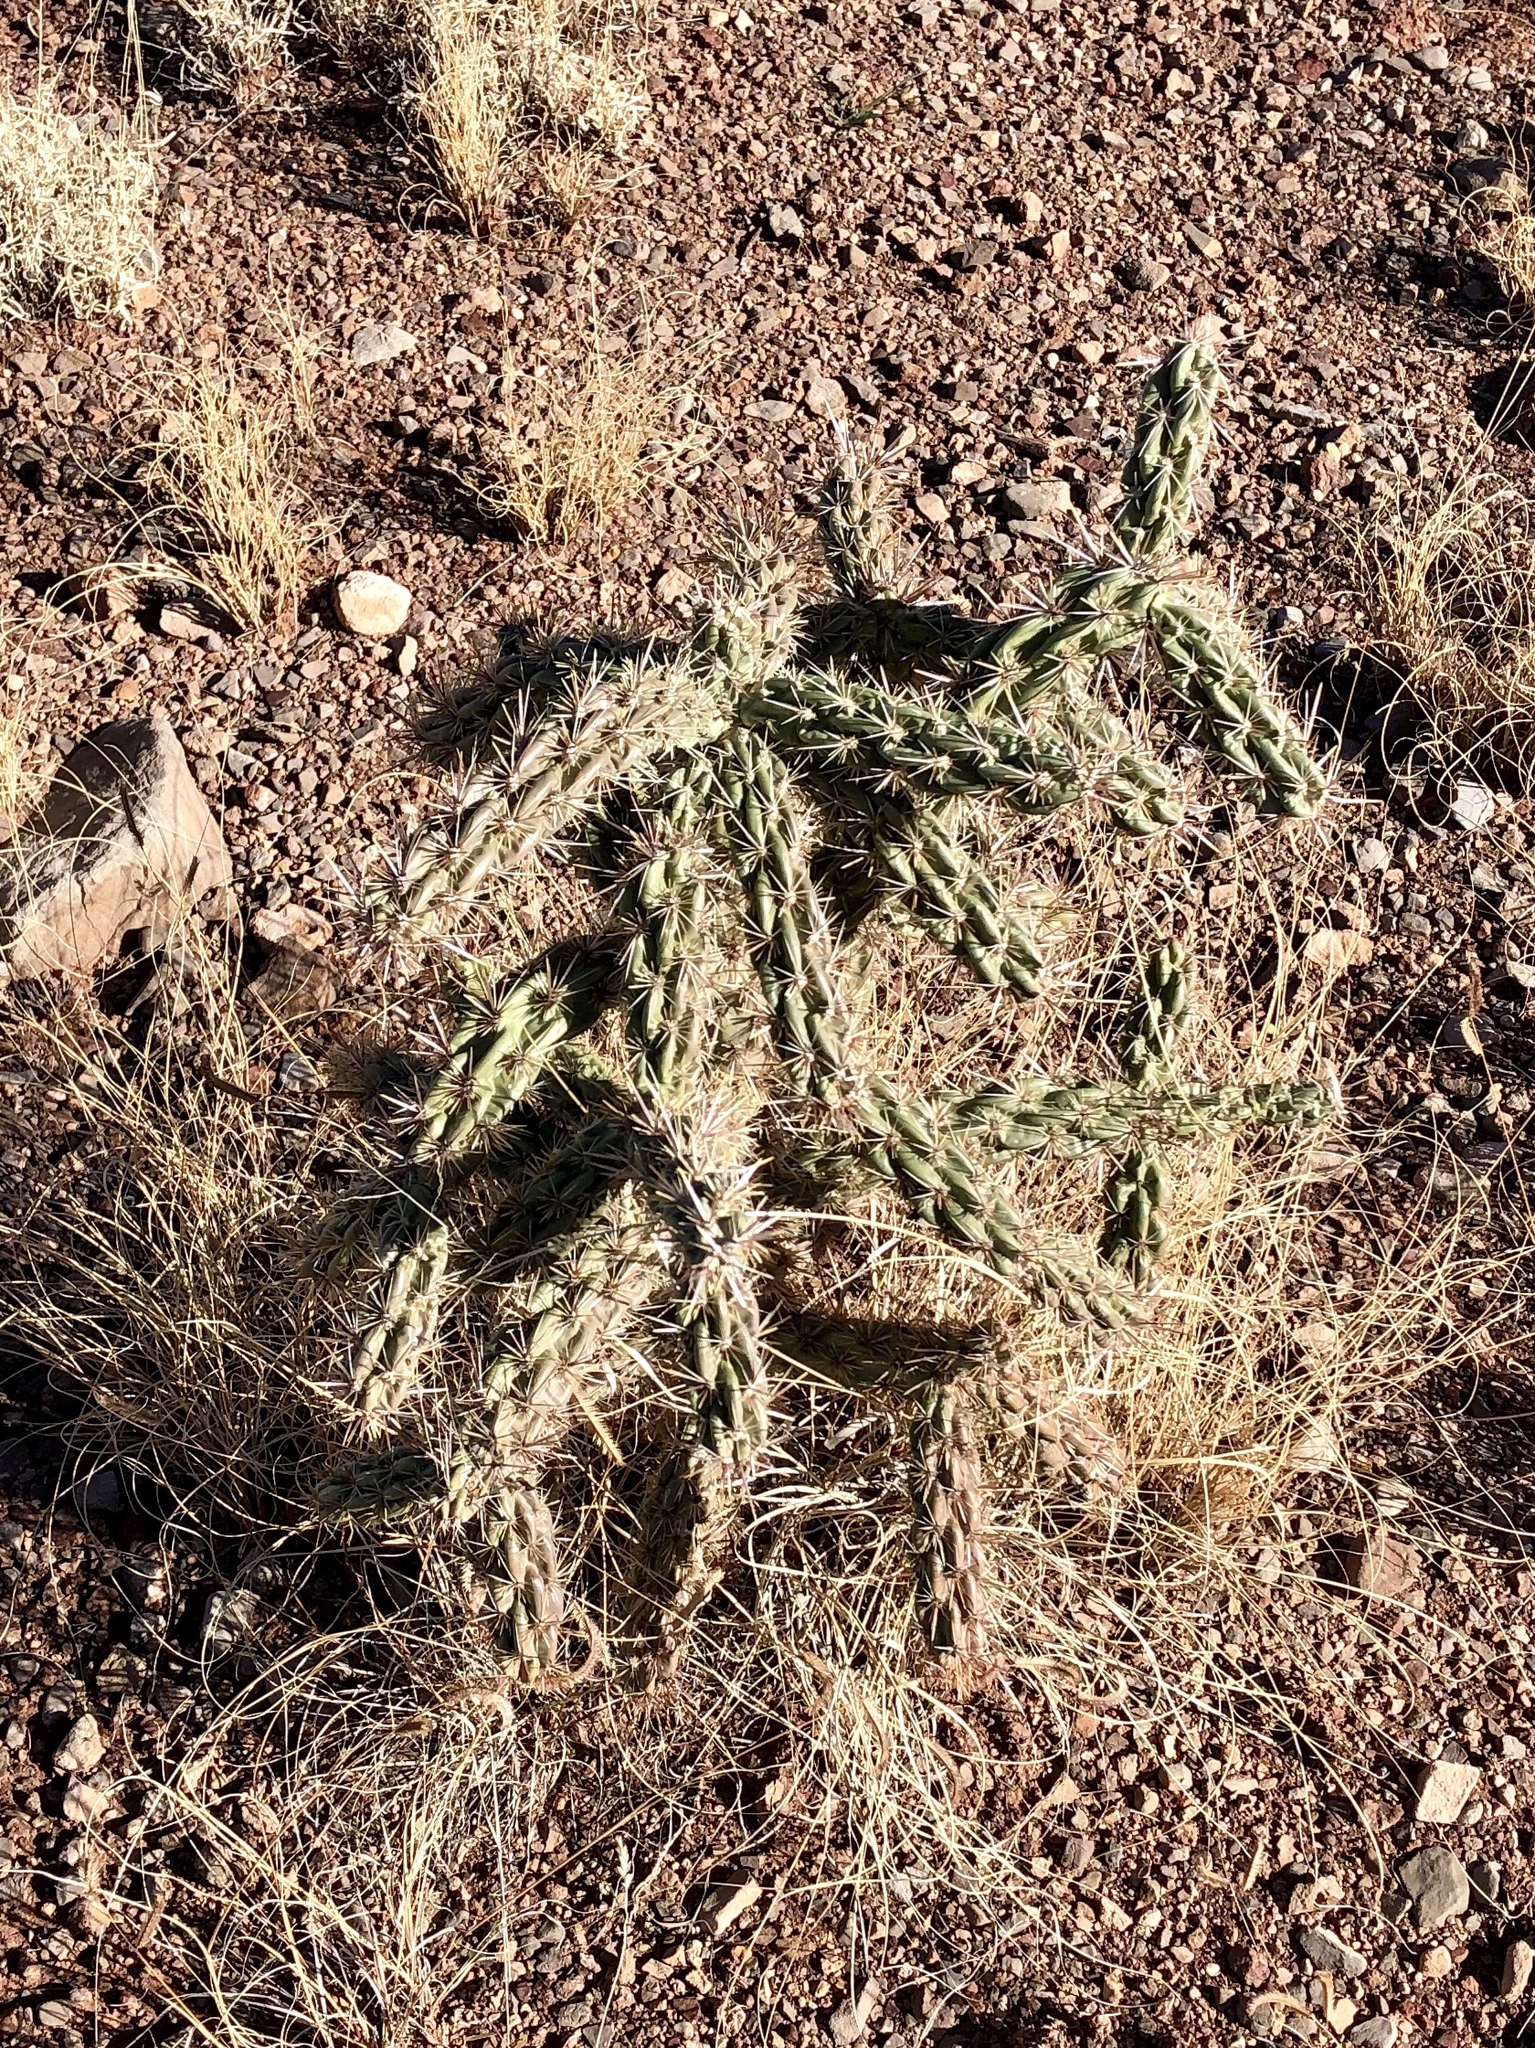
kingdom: Plantae
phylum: Tracheophyta
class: Magnoliopsida
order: Caryophyllales
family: Cactaceae
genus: Cylindropuntia
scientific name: Cylindropuntia imbricata
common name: Candelabrum cactus
